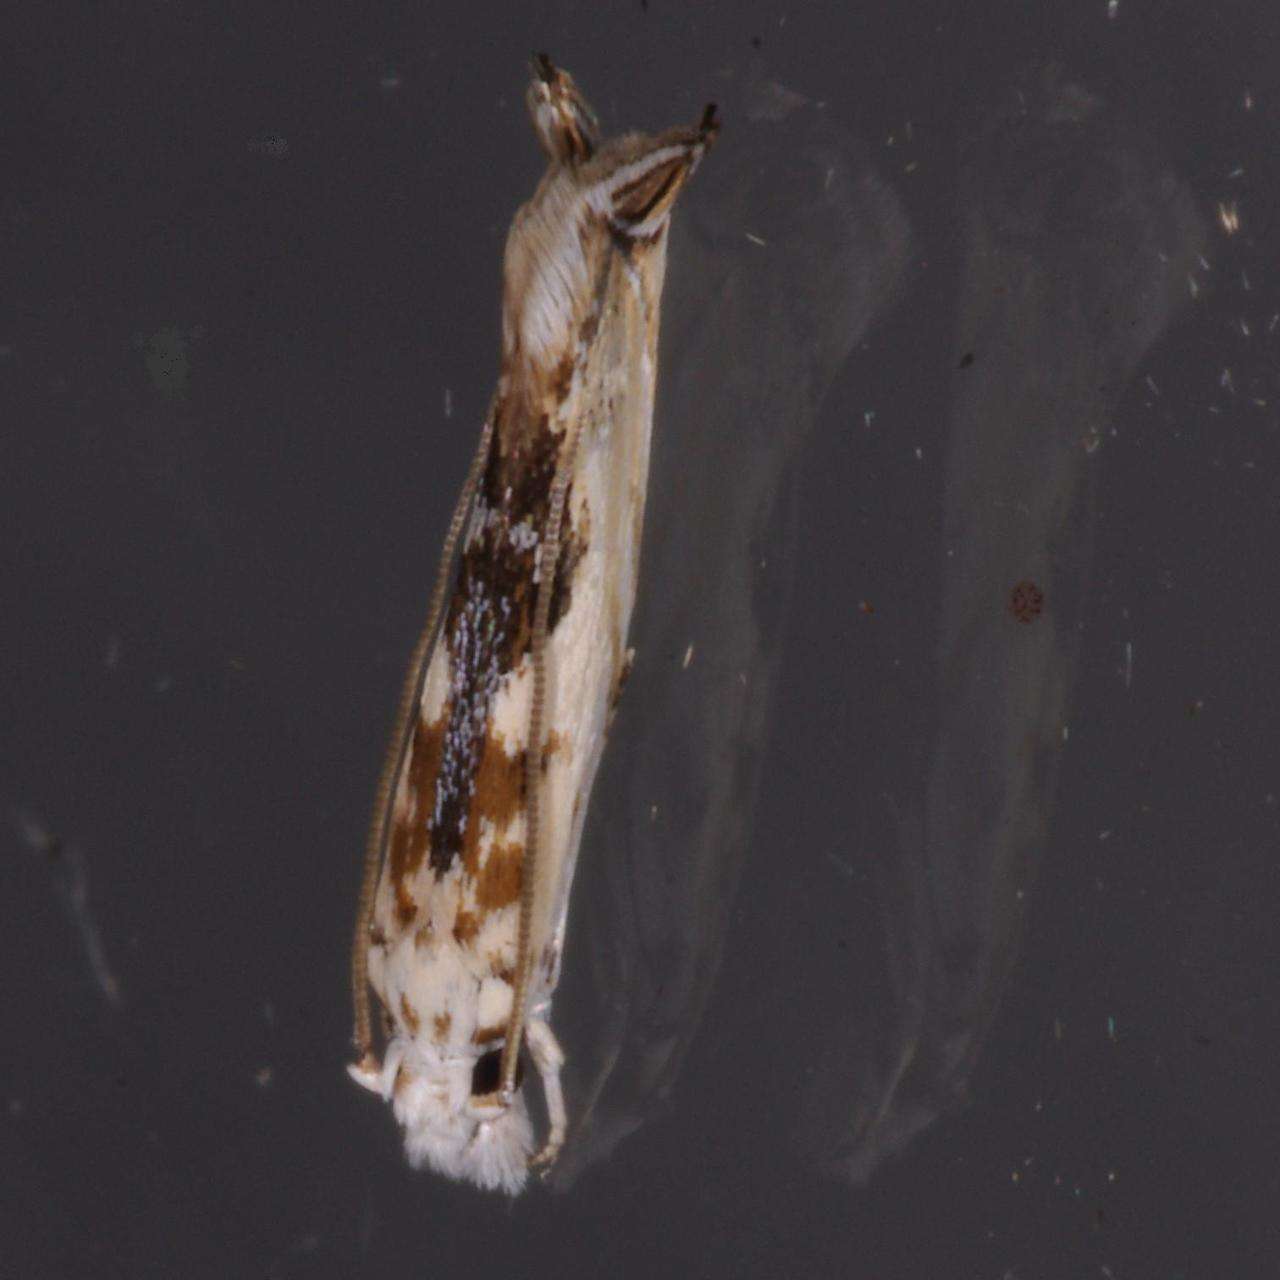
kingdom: Animalia
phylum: Arthropoda
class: Insecta
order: Lepidoptera
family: Tineidae
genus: Erechthias
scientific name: Erechthias mystacinella
